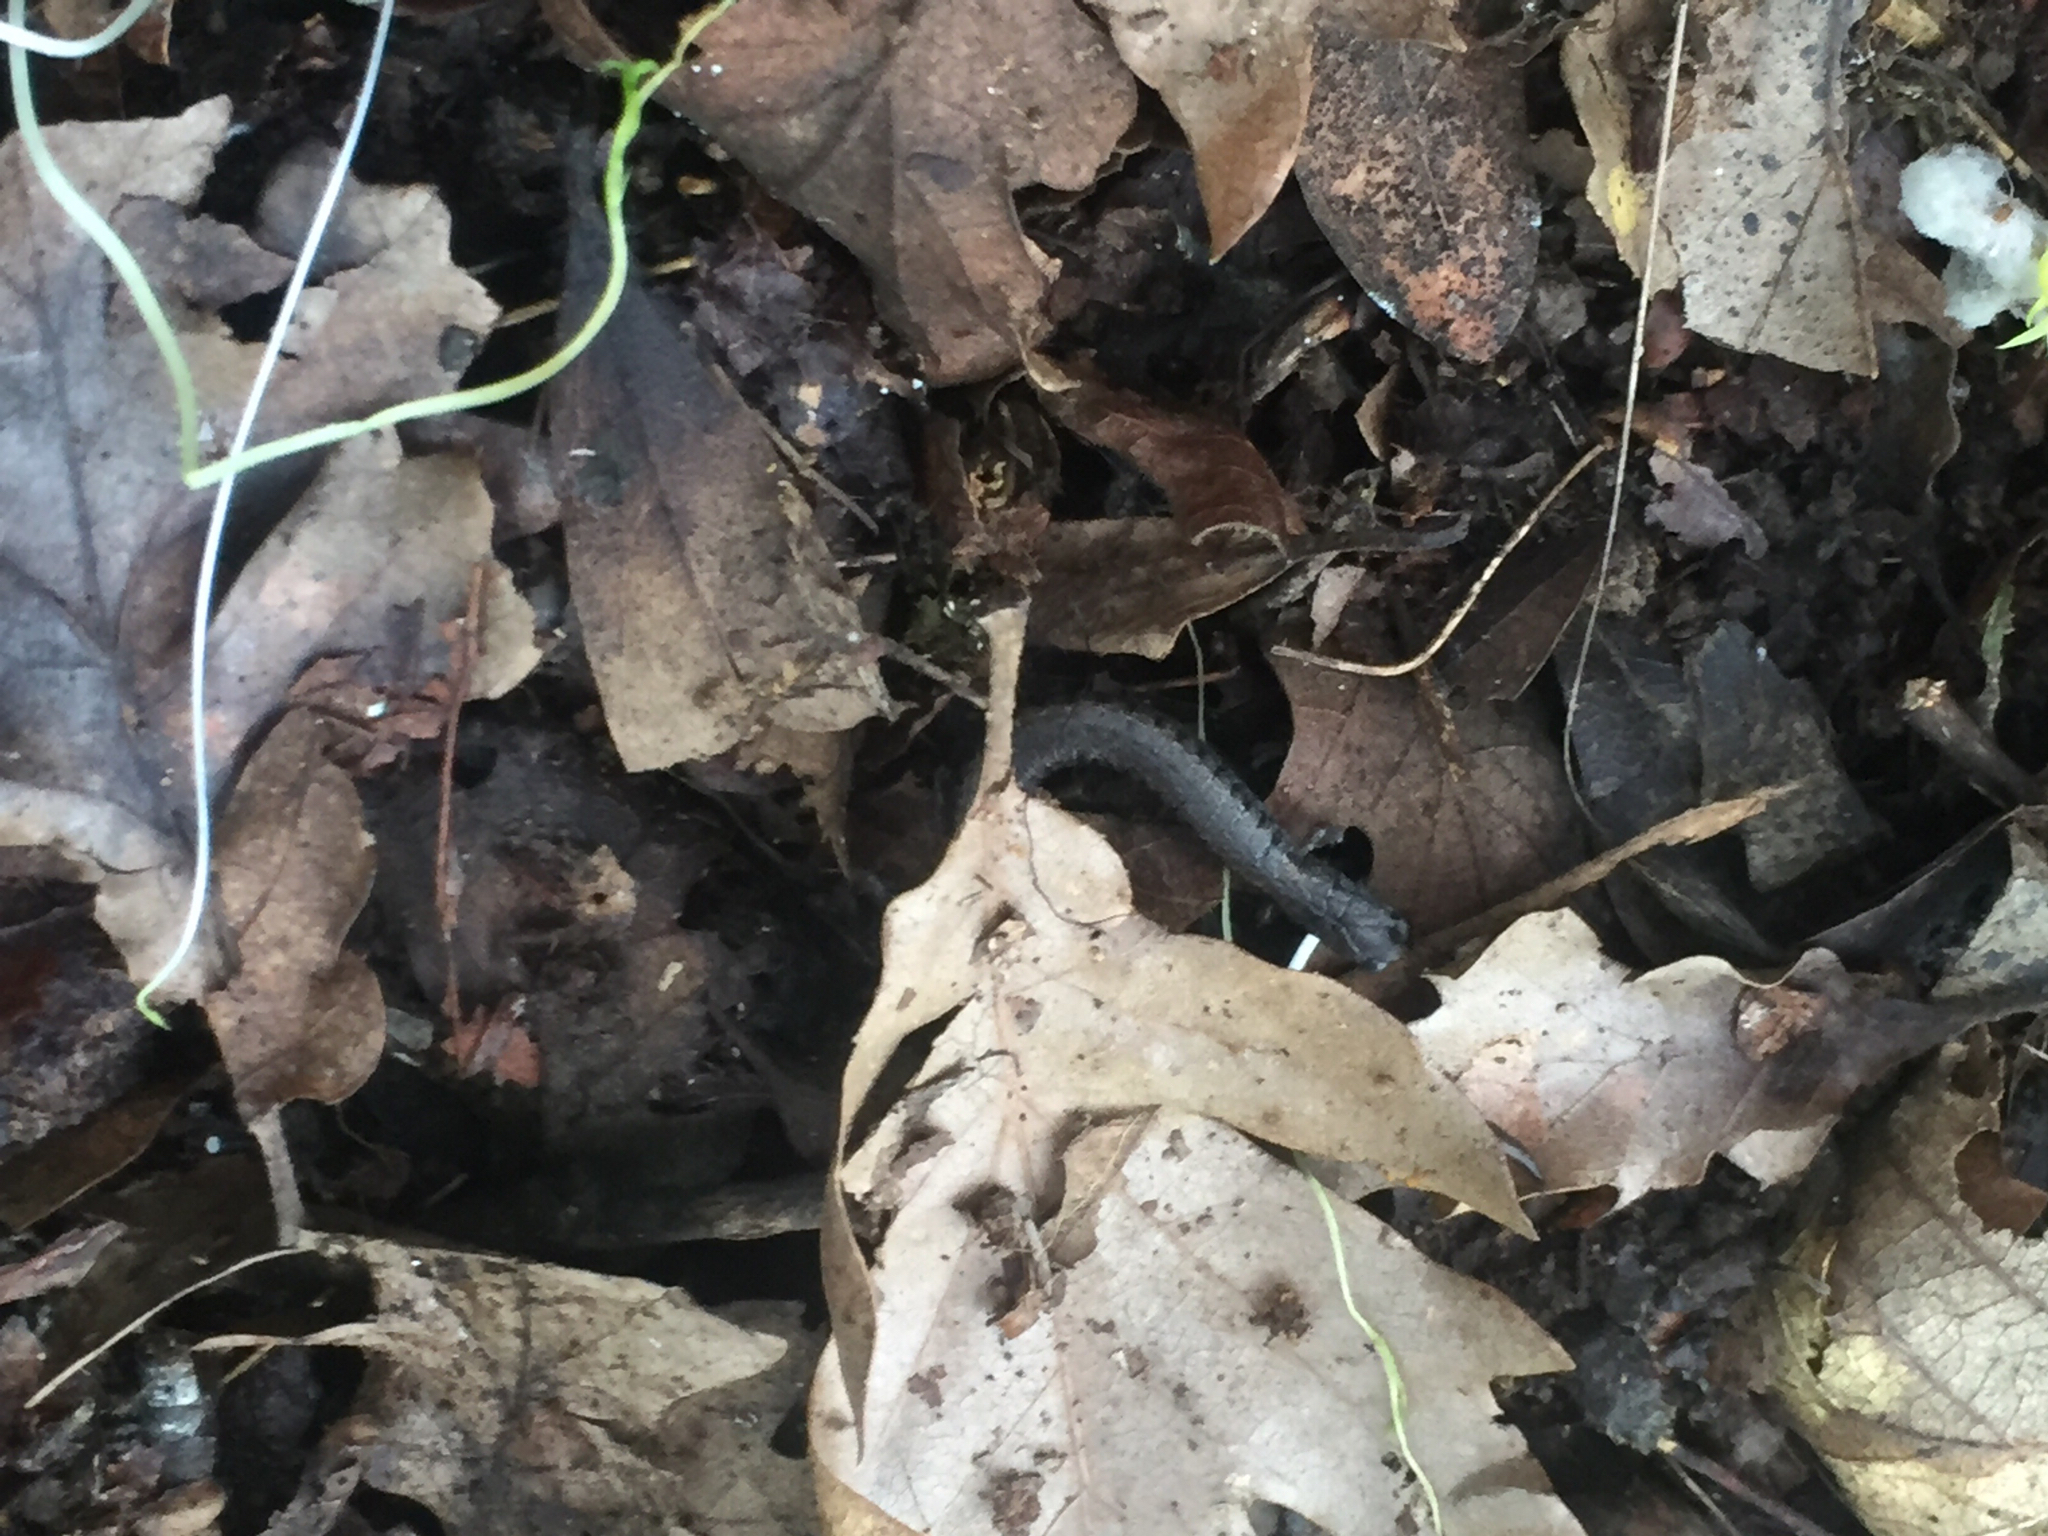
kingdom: Animalia
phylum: Chordata
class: Amphibia
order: Caudata
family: Plethodontidae
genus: Batrachoseps
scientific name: Batrachoseps attenuatus
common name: California slender salamander
